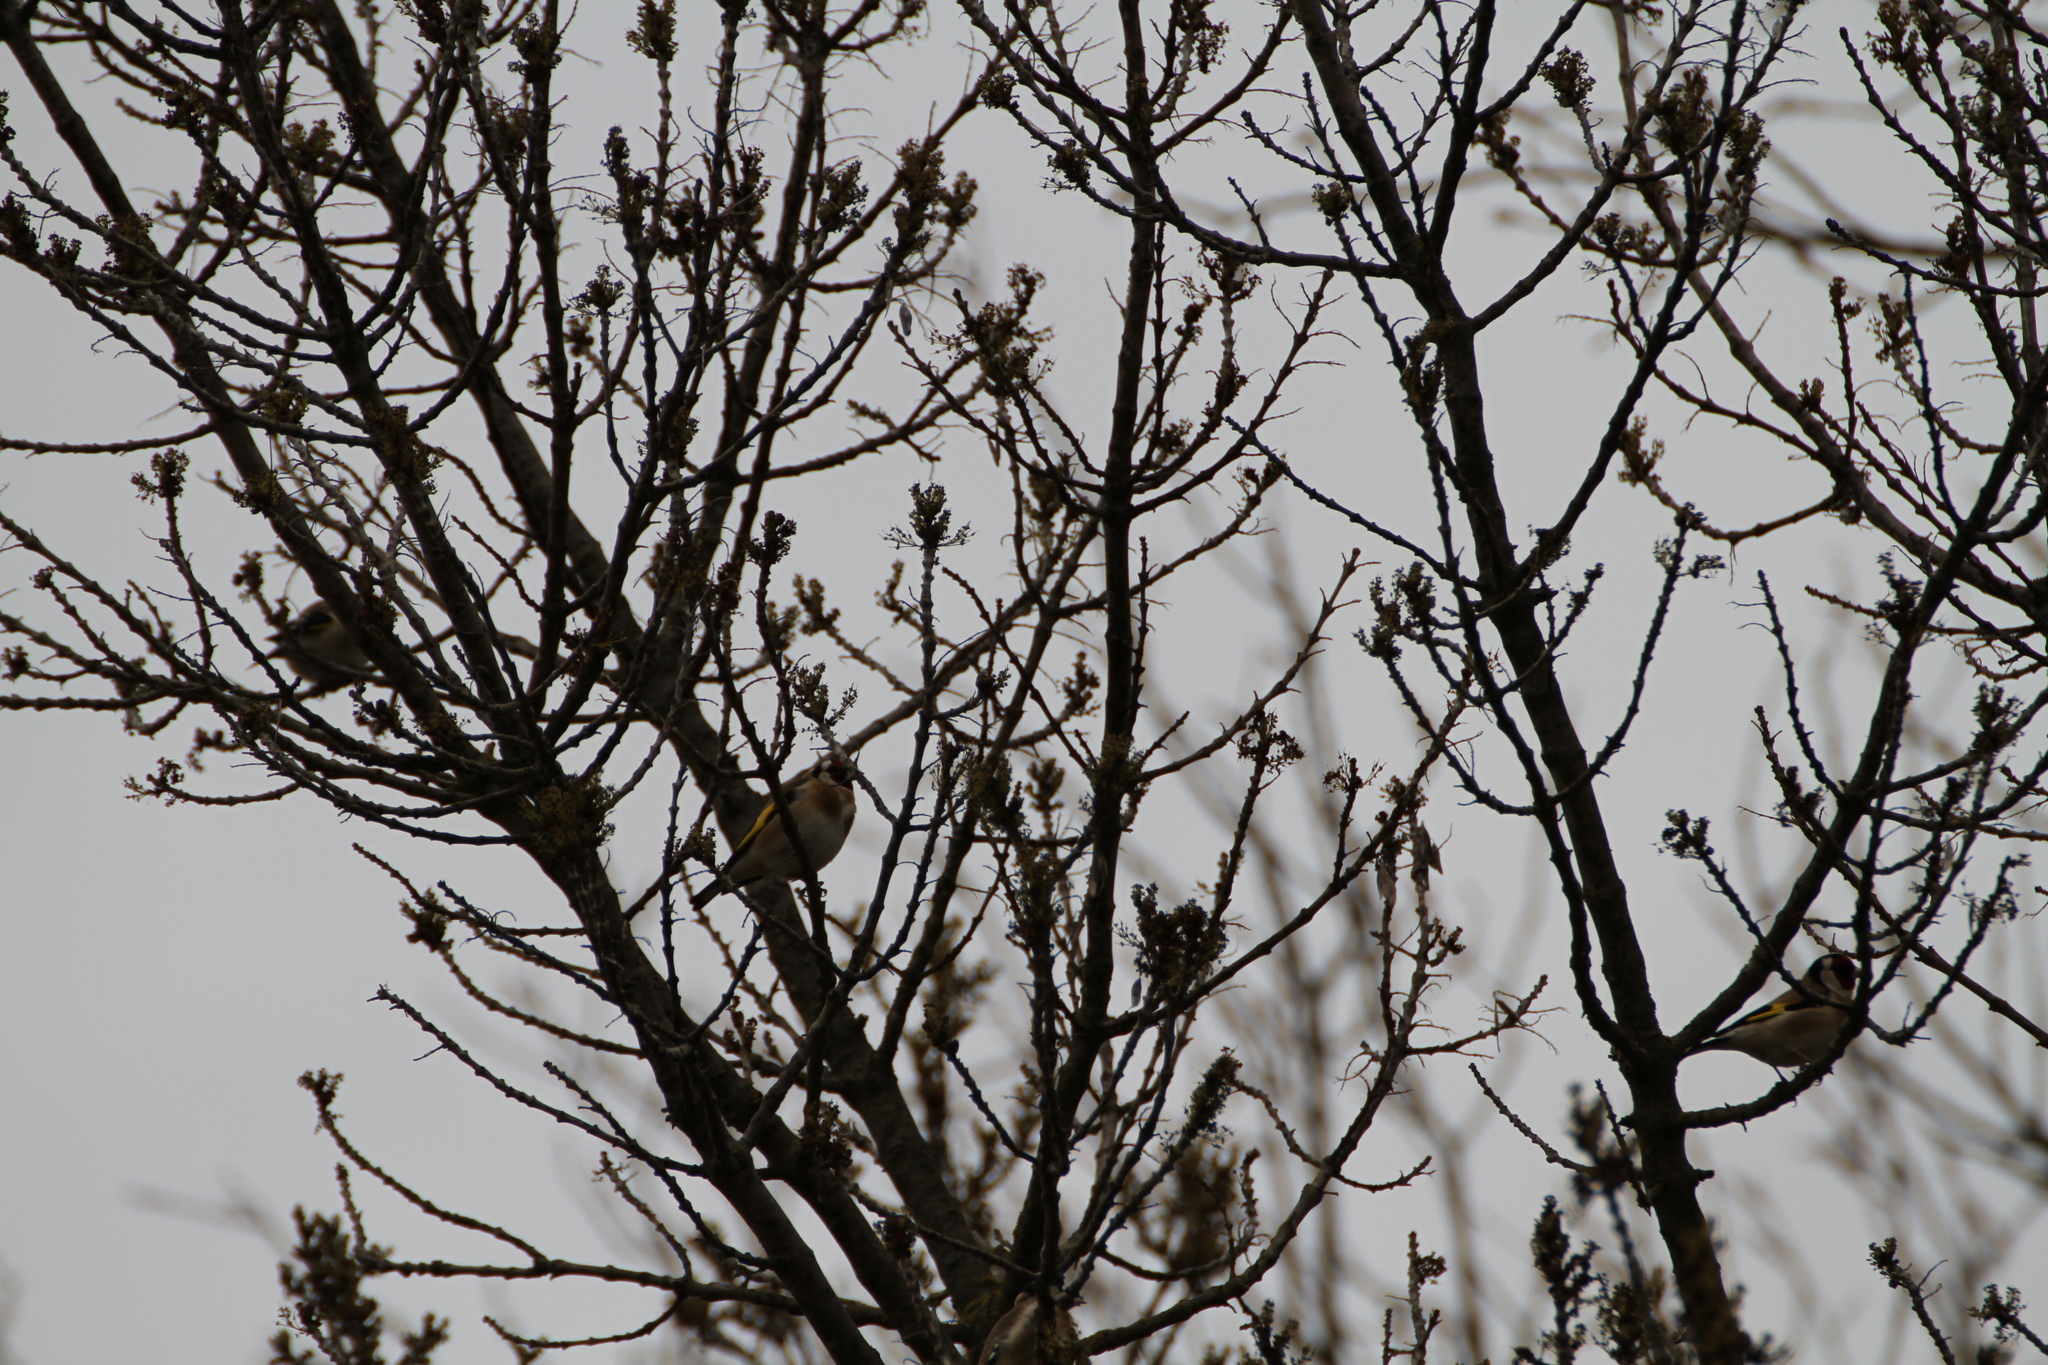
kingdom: Animalia
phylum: Chordata
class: Aves
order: Passeriformes
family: Fringillidae
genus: Carduelis
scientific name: Carduelis carduelis
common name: European goldfinch
